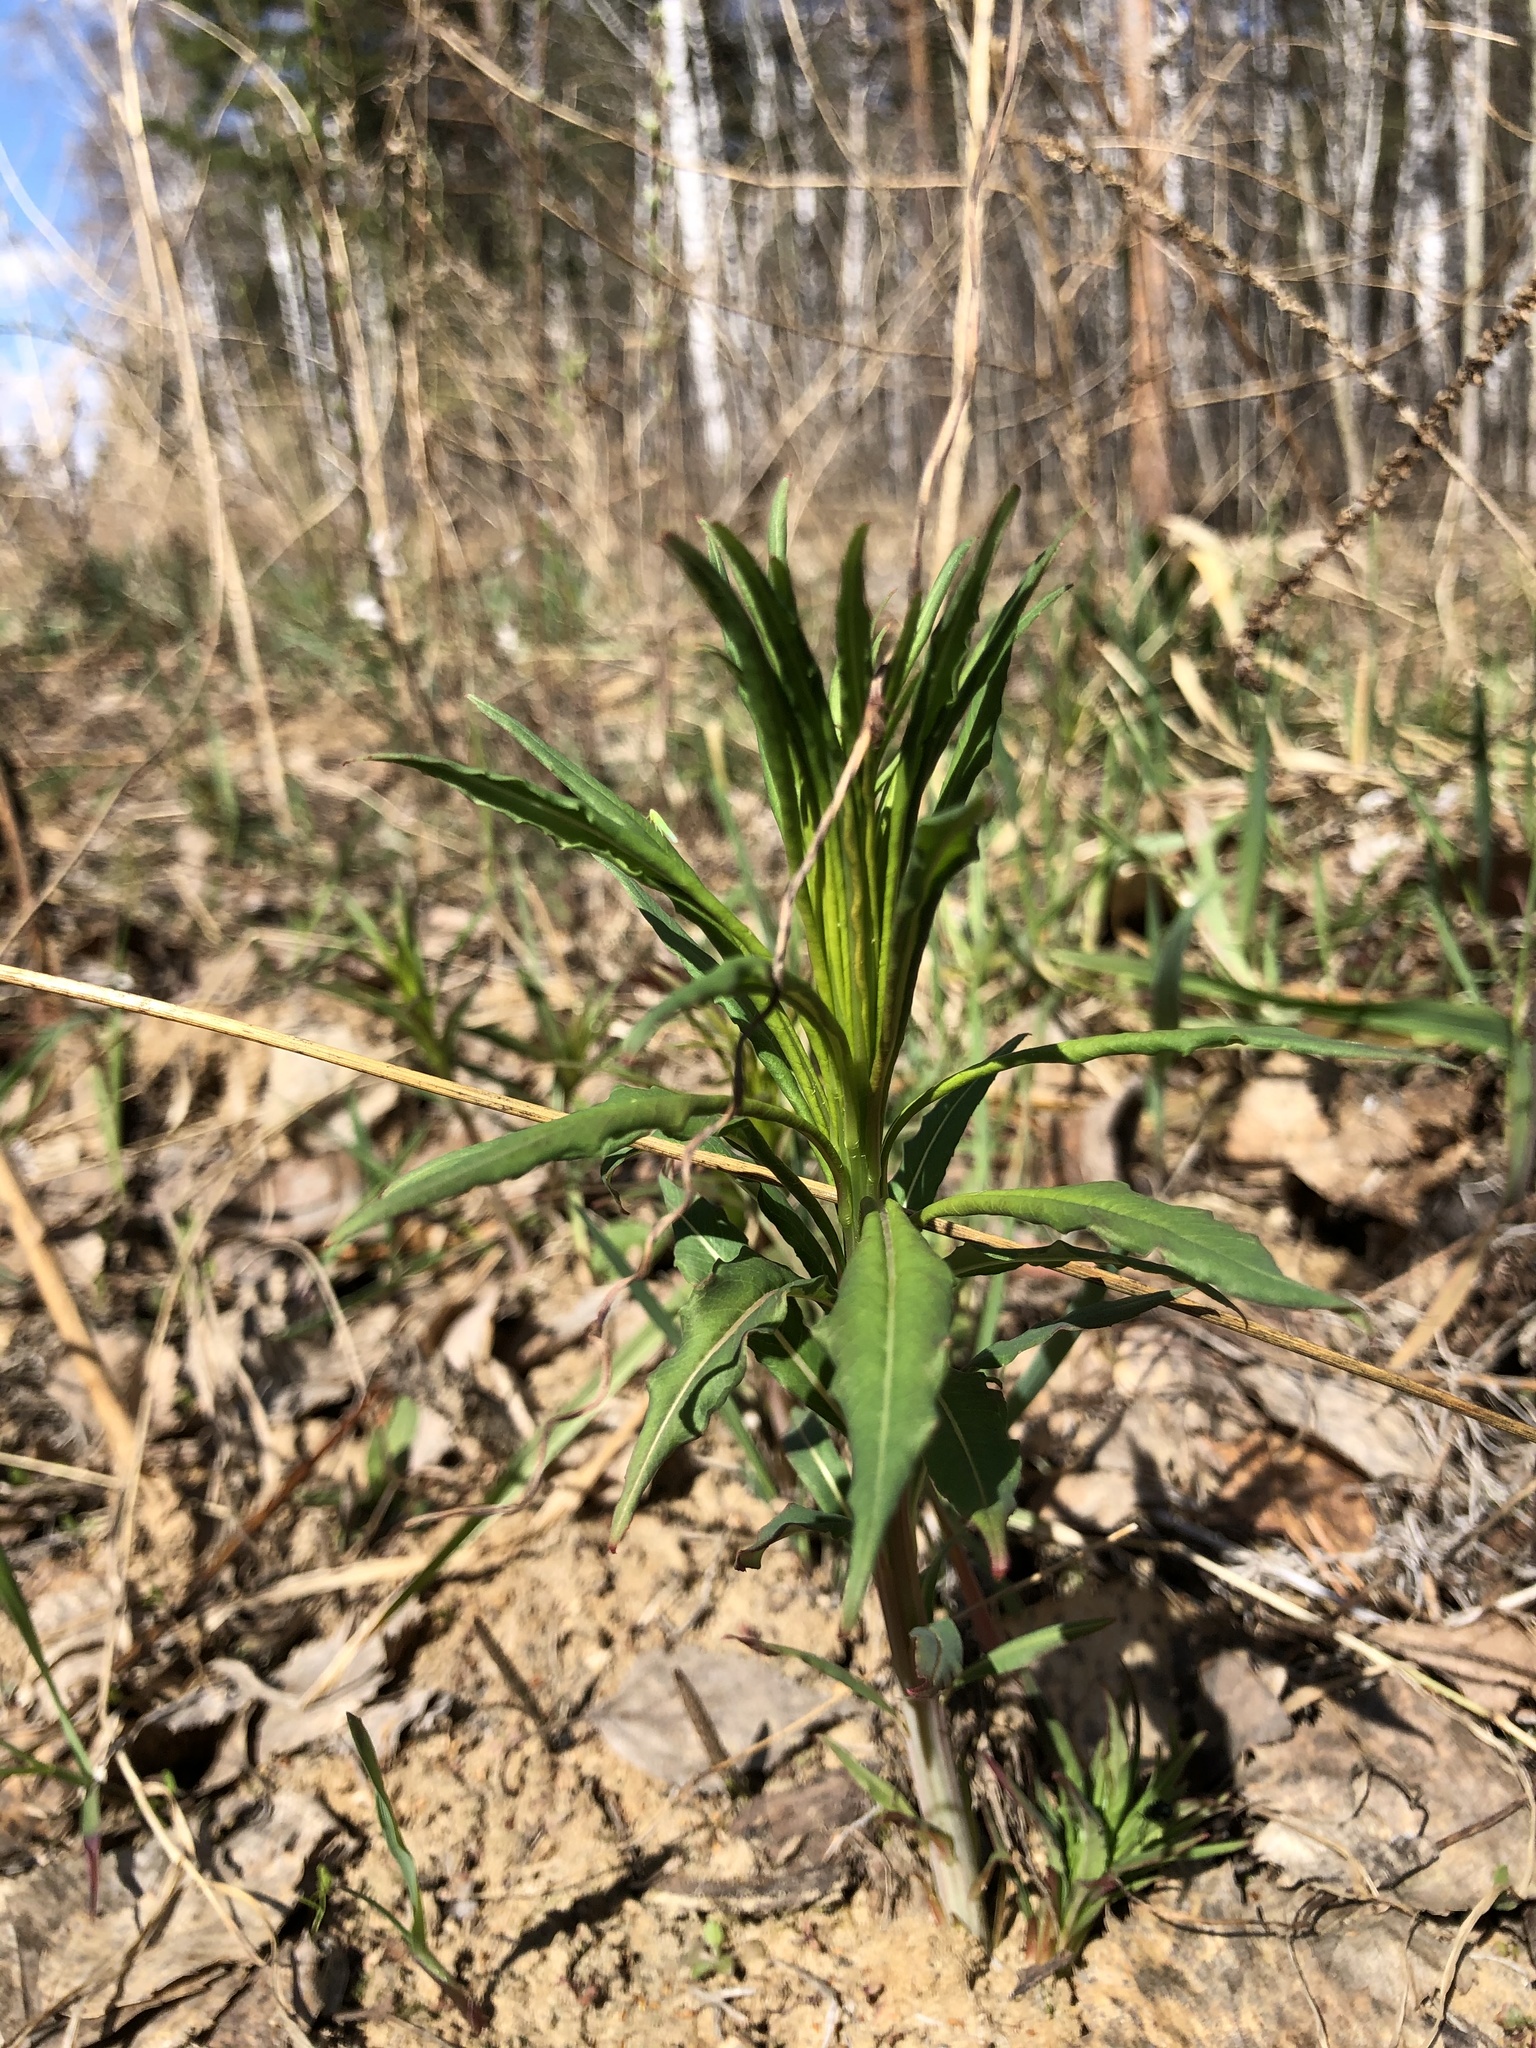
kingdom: Plantae
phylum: Tracheophyta
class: Magnoliopsida
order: Myrtales
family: Onagraceae
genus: Chamaenerion
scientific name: Chamaenerion angustifolium
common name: Fireweed
